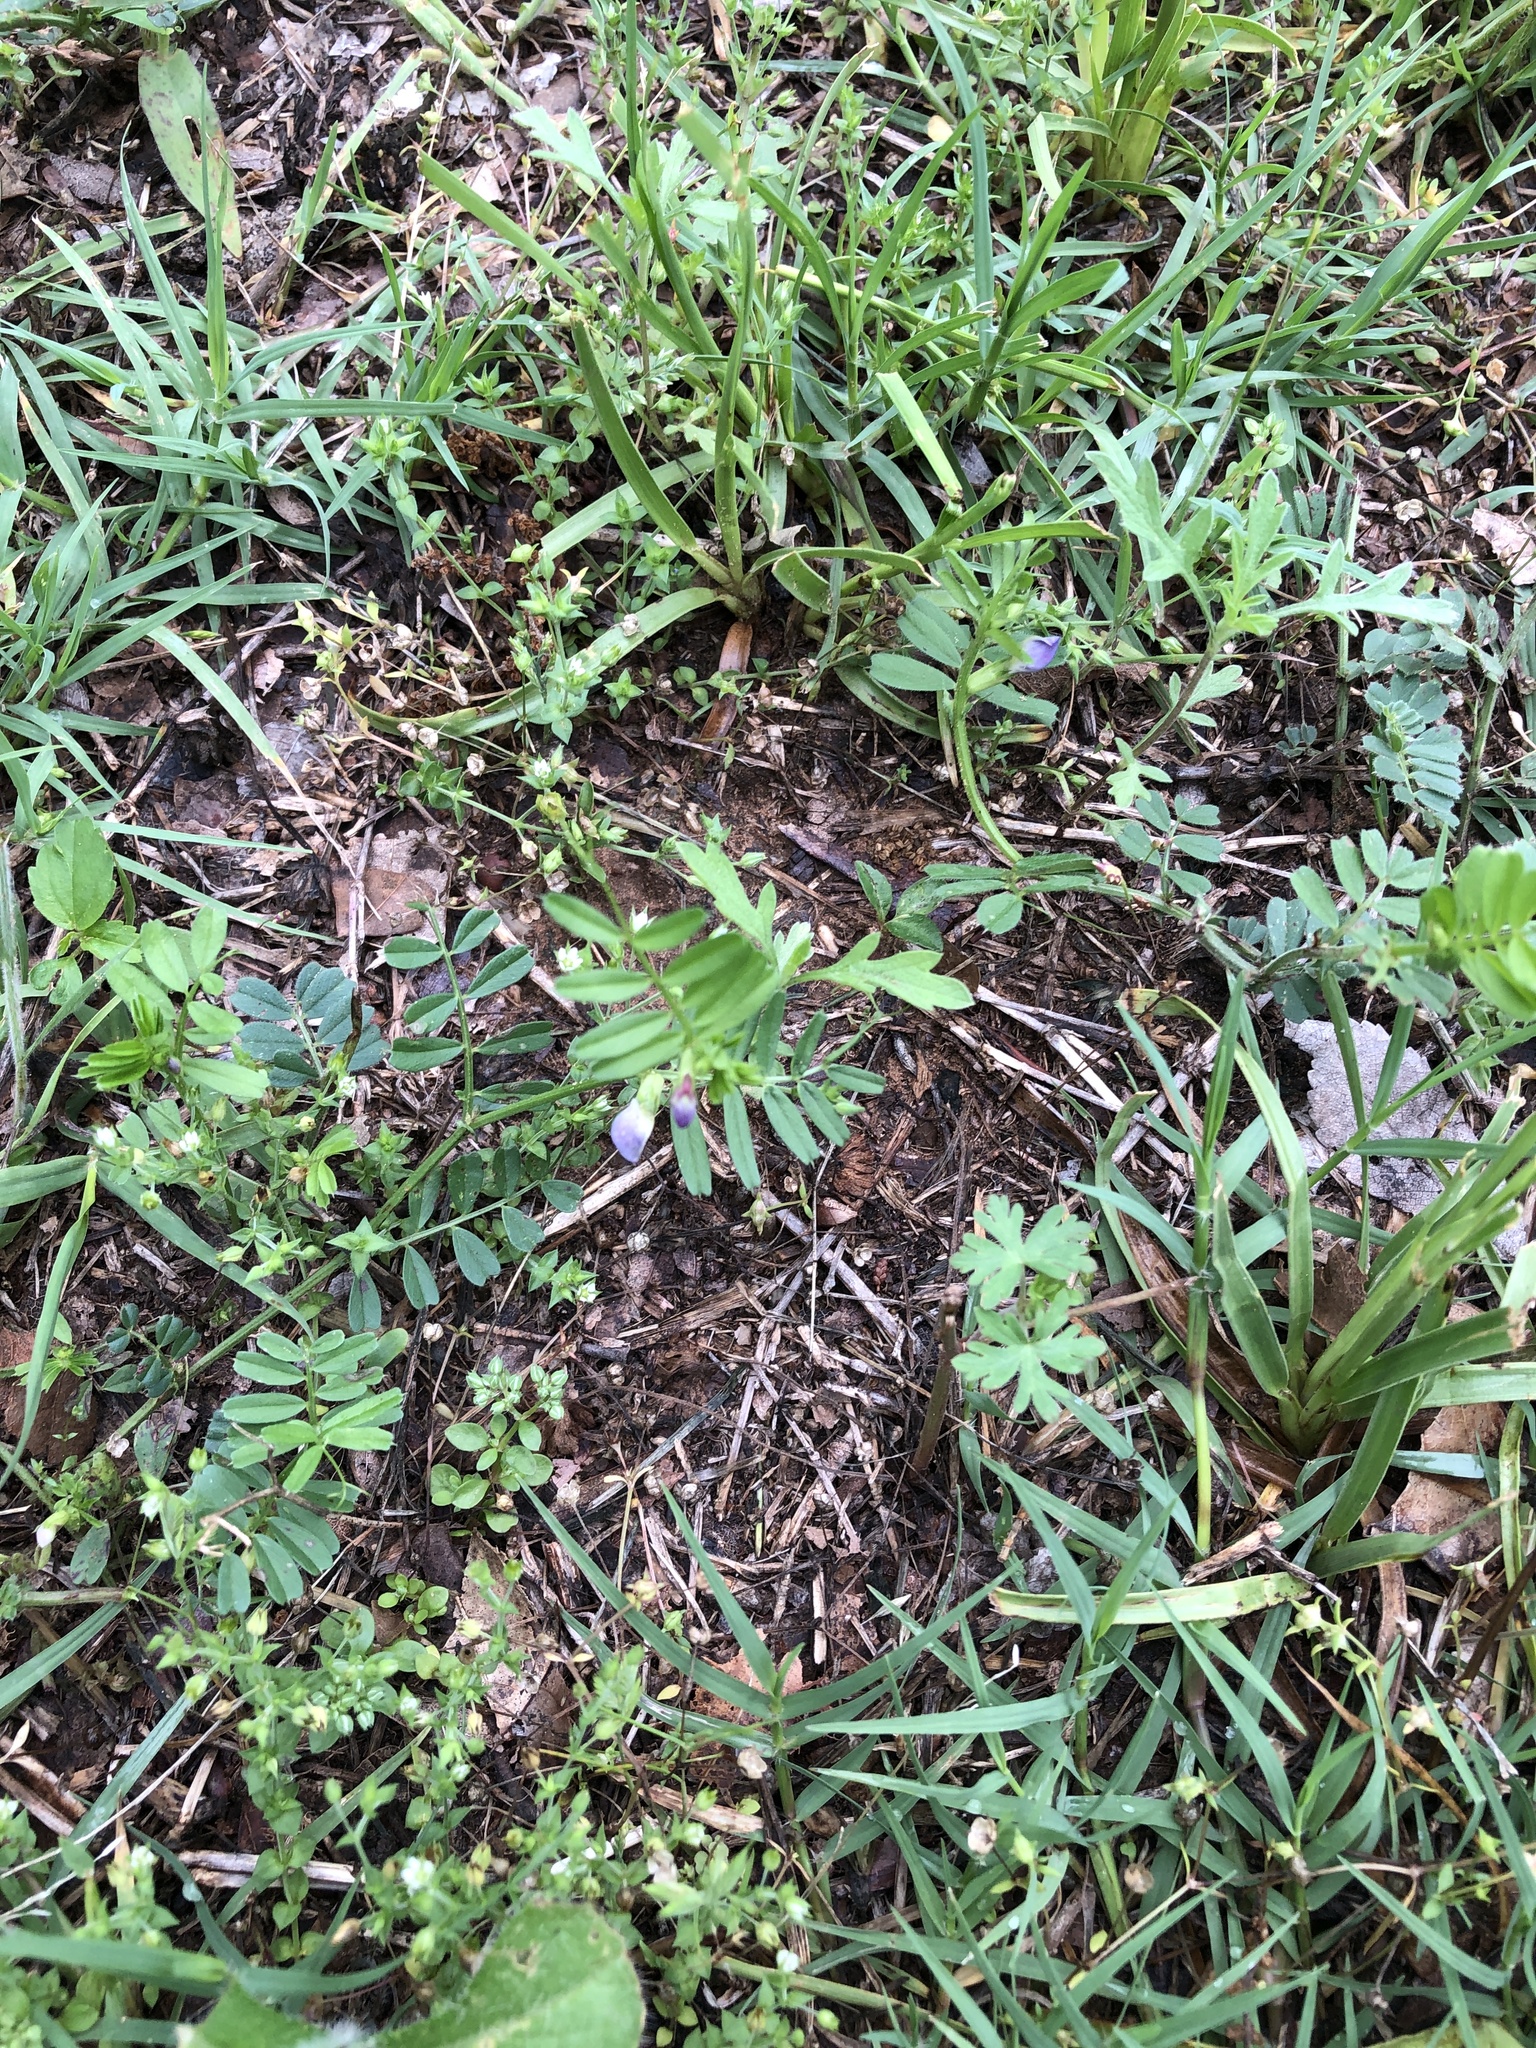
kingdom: Plantae
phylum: Tracheophyta
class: Magnoliopsida
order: Fabales
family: Fabaceae
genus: Vicia
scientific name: Vicia sativa
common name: Garden vetch
